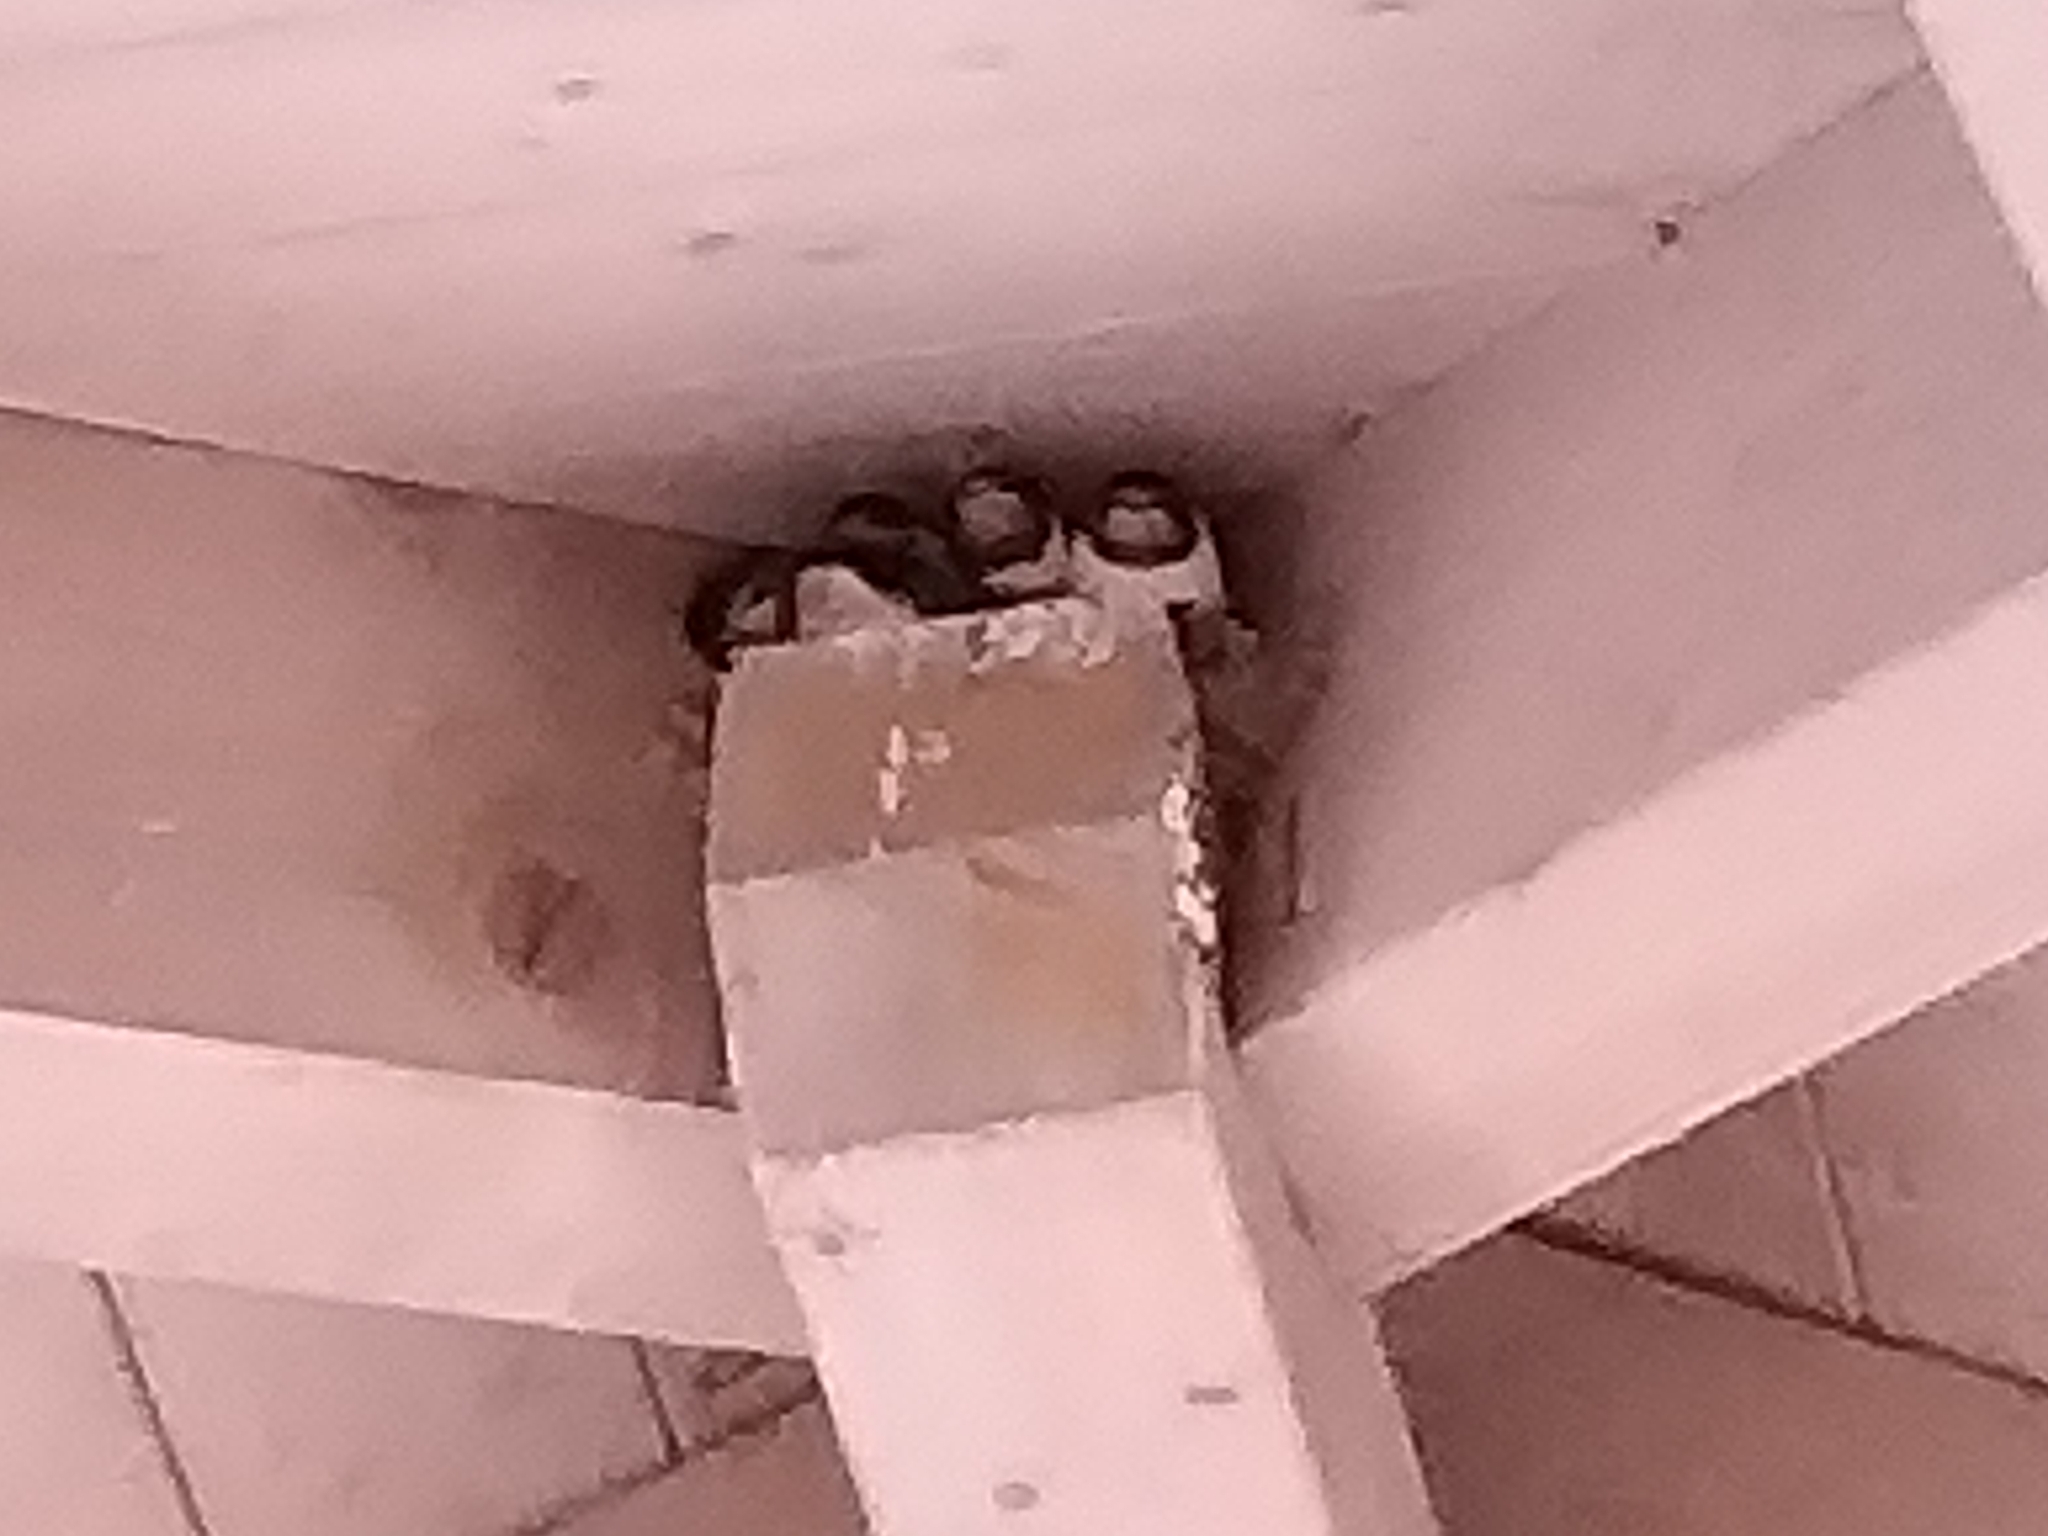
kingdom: Animalia
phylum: Chordata
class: Aves
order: Passeriformes
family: Hirundinidae
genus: Hirundo
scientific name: Hirundo rustica
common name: Barn swallow
